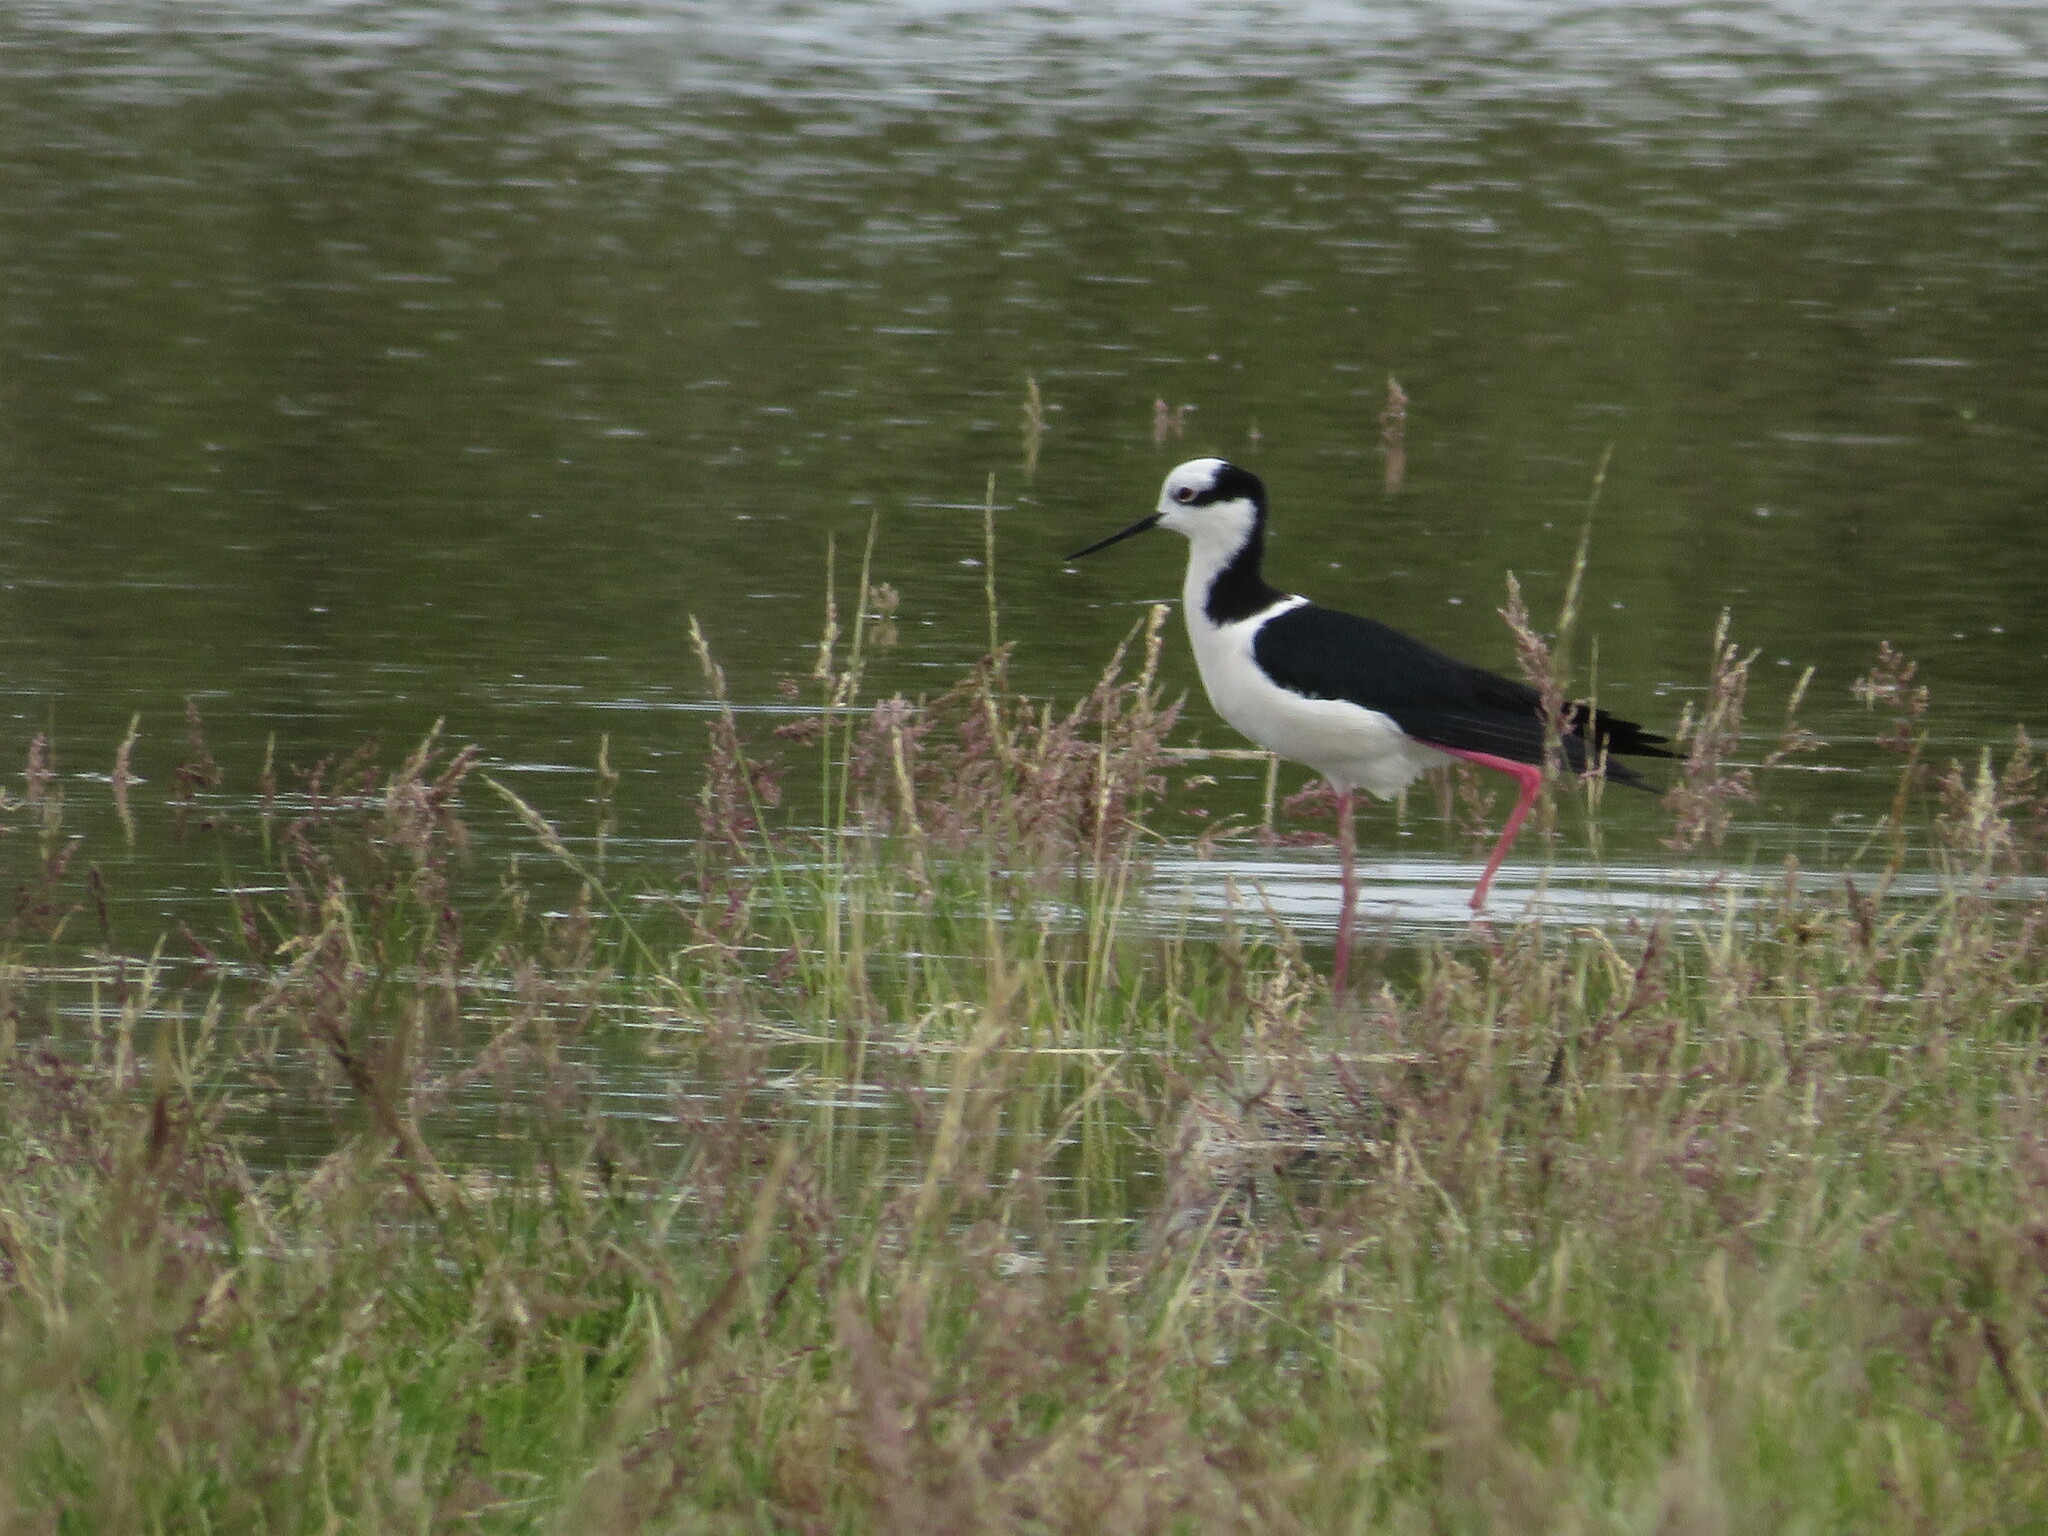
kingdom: Animalia
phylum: Chordata
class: Aves
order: Charadriiformes
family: Recurvirostridae
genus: Himantopus
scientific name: Himantopus mexicanus
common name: Black-necked stilt
